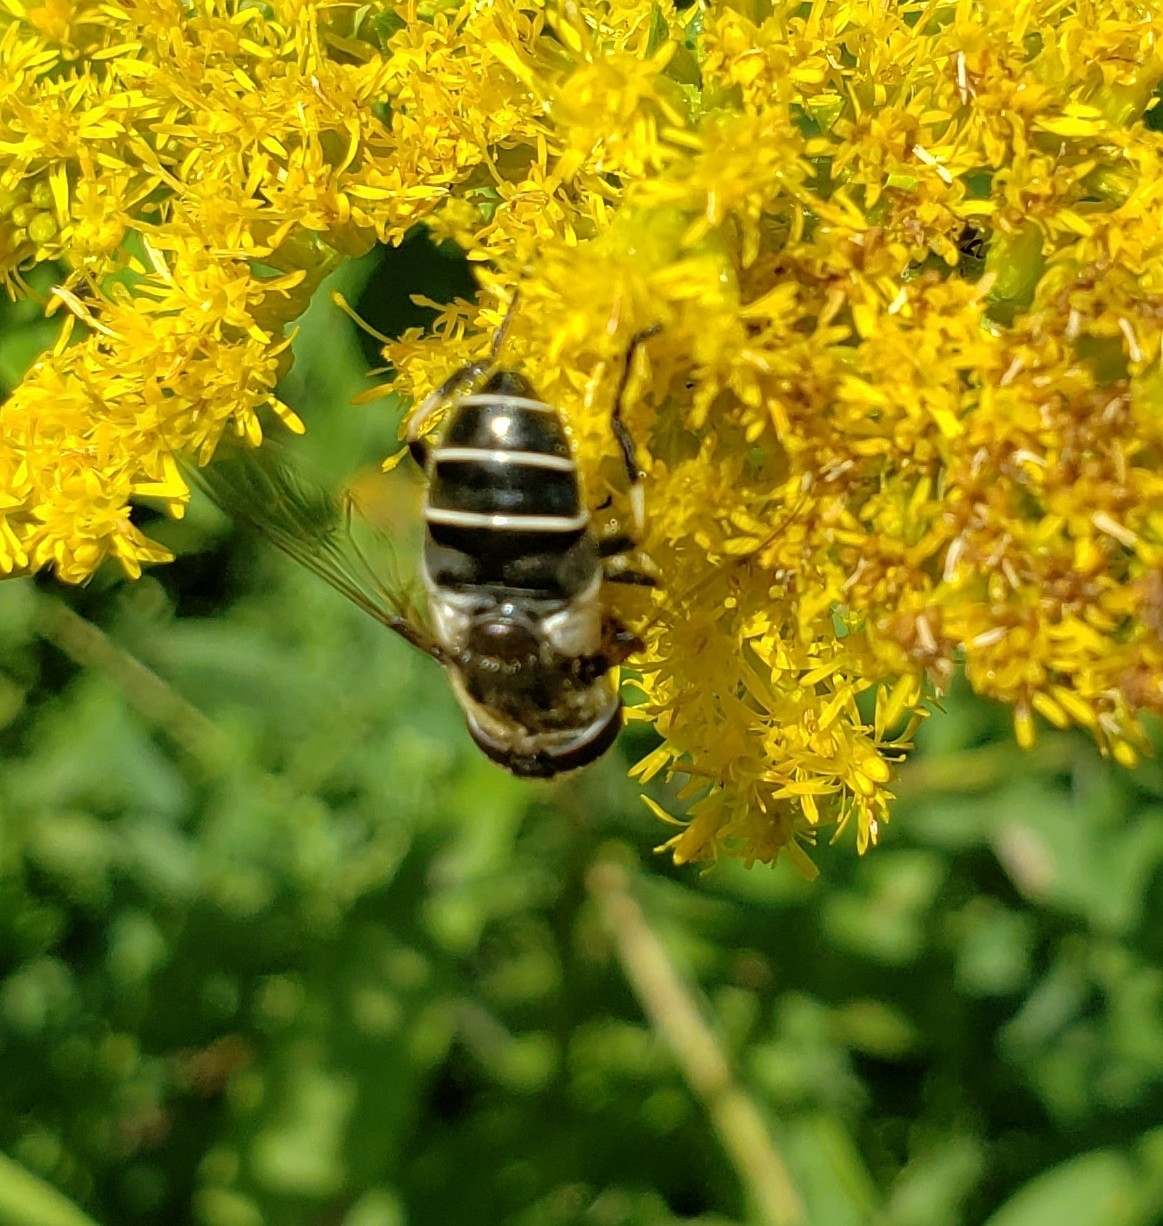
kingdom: Animalia
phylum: Arthropoda
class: Insecta
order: Diptera
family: Syrphidae
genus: Eristalis
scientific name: Eristalis dimidiata
